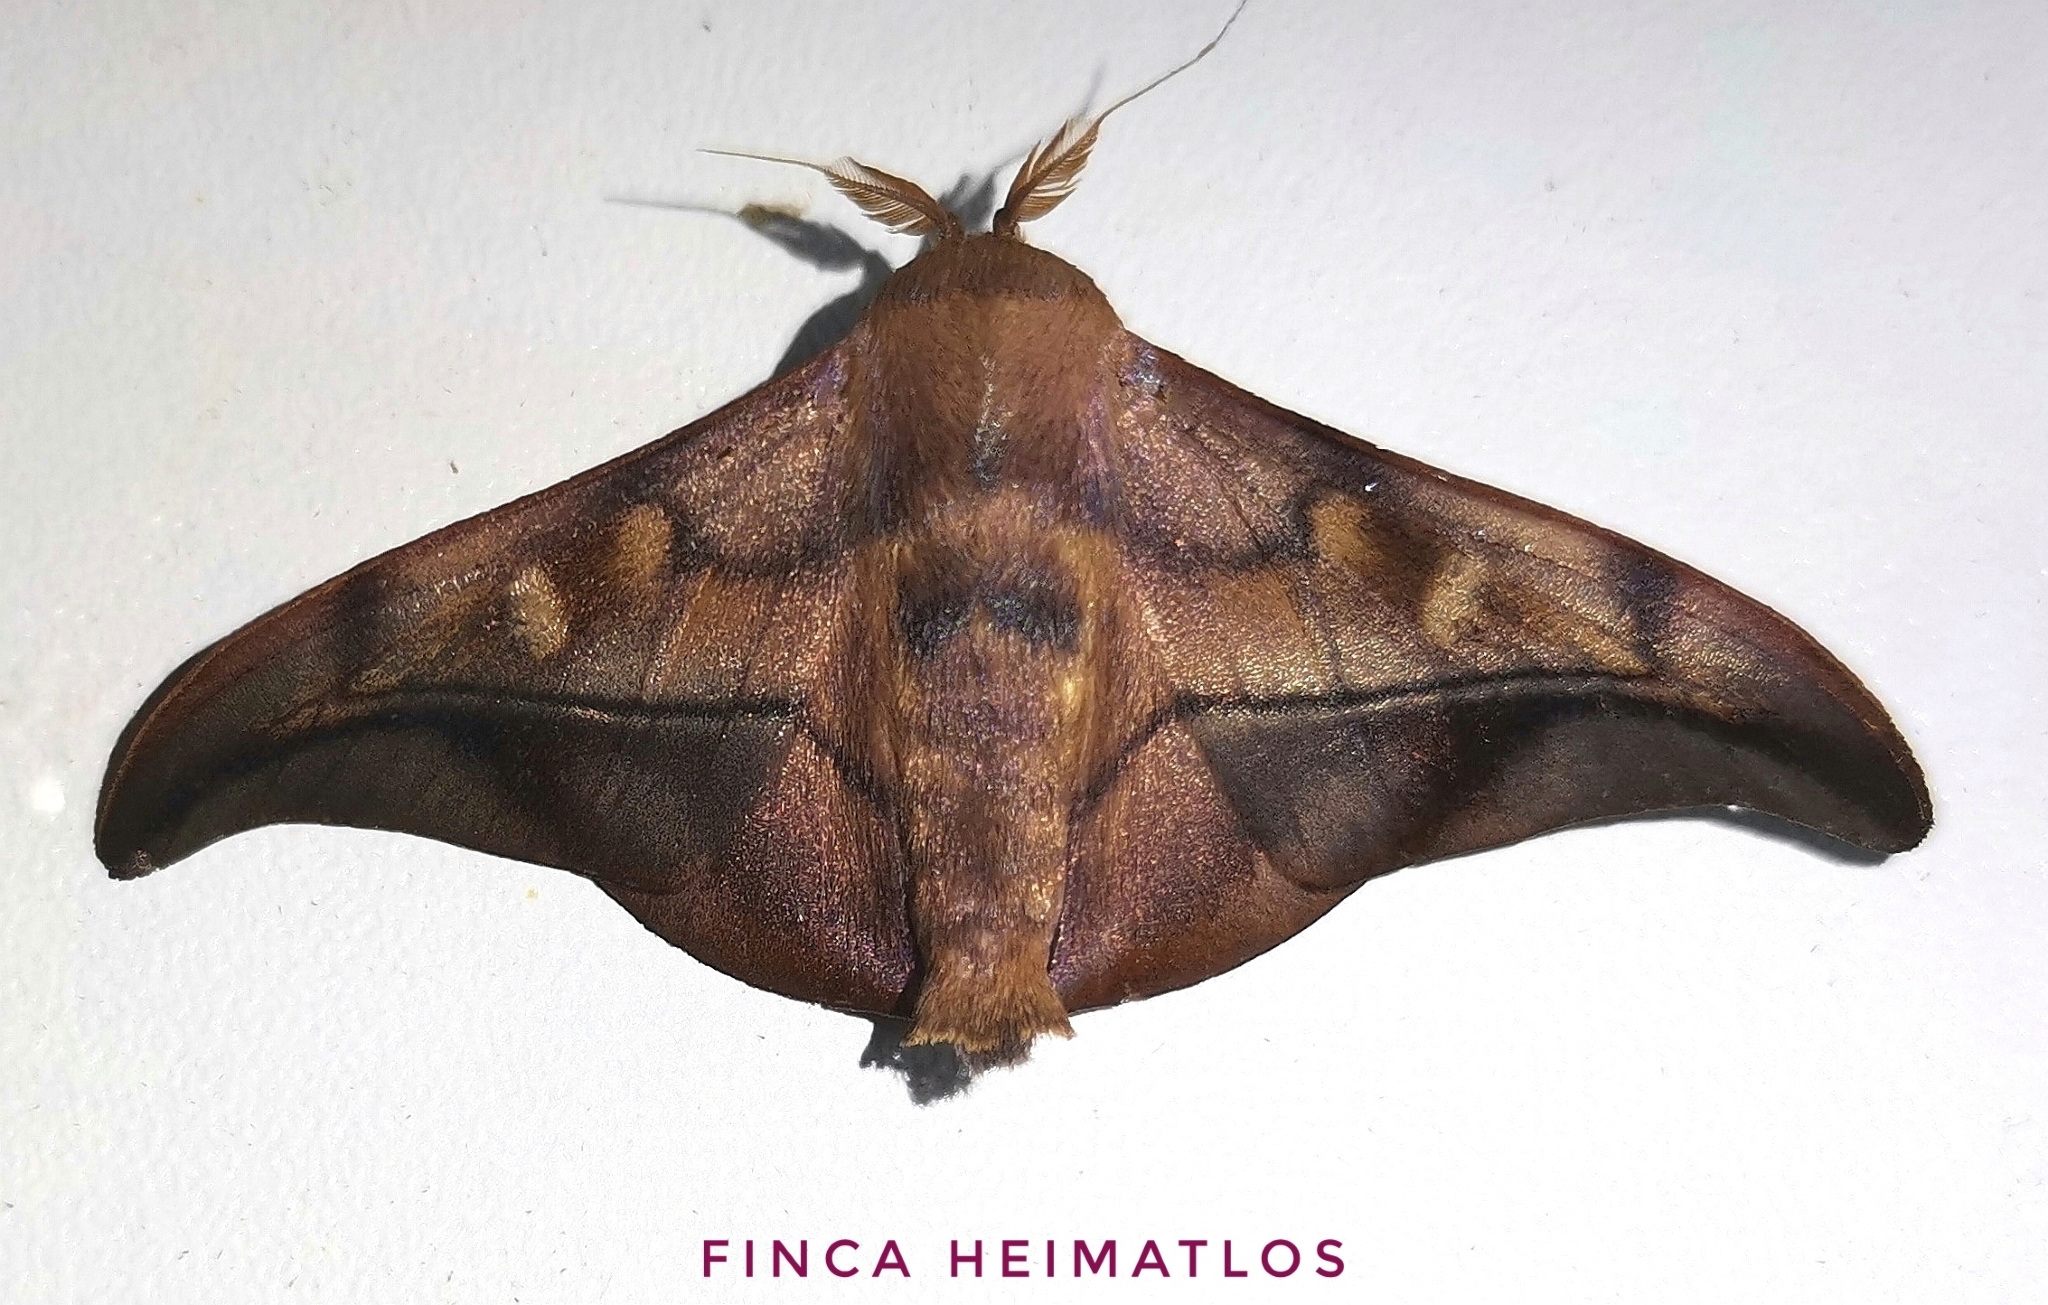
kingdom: Animalia
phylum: Arthropoda
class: Insecta
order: Lepidoptera
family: Mimallonidae
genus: Cicinnus
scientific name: Cicinnus anysia
